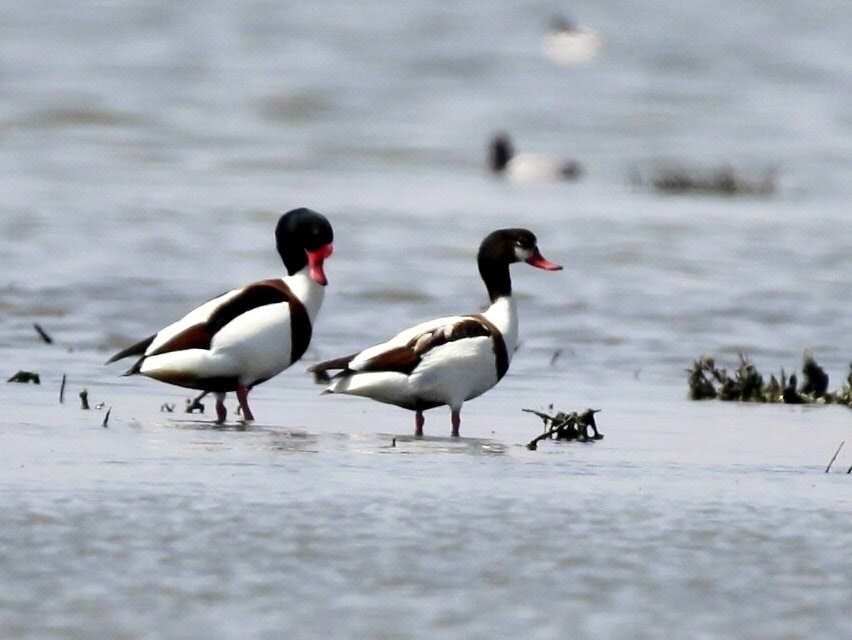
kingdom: Animalia
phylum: Chordata
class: Aves
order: Anseriformes
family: Anatidae
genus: Tadorna
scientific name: Tadorna tadorna
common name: Common shelduck
